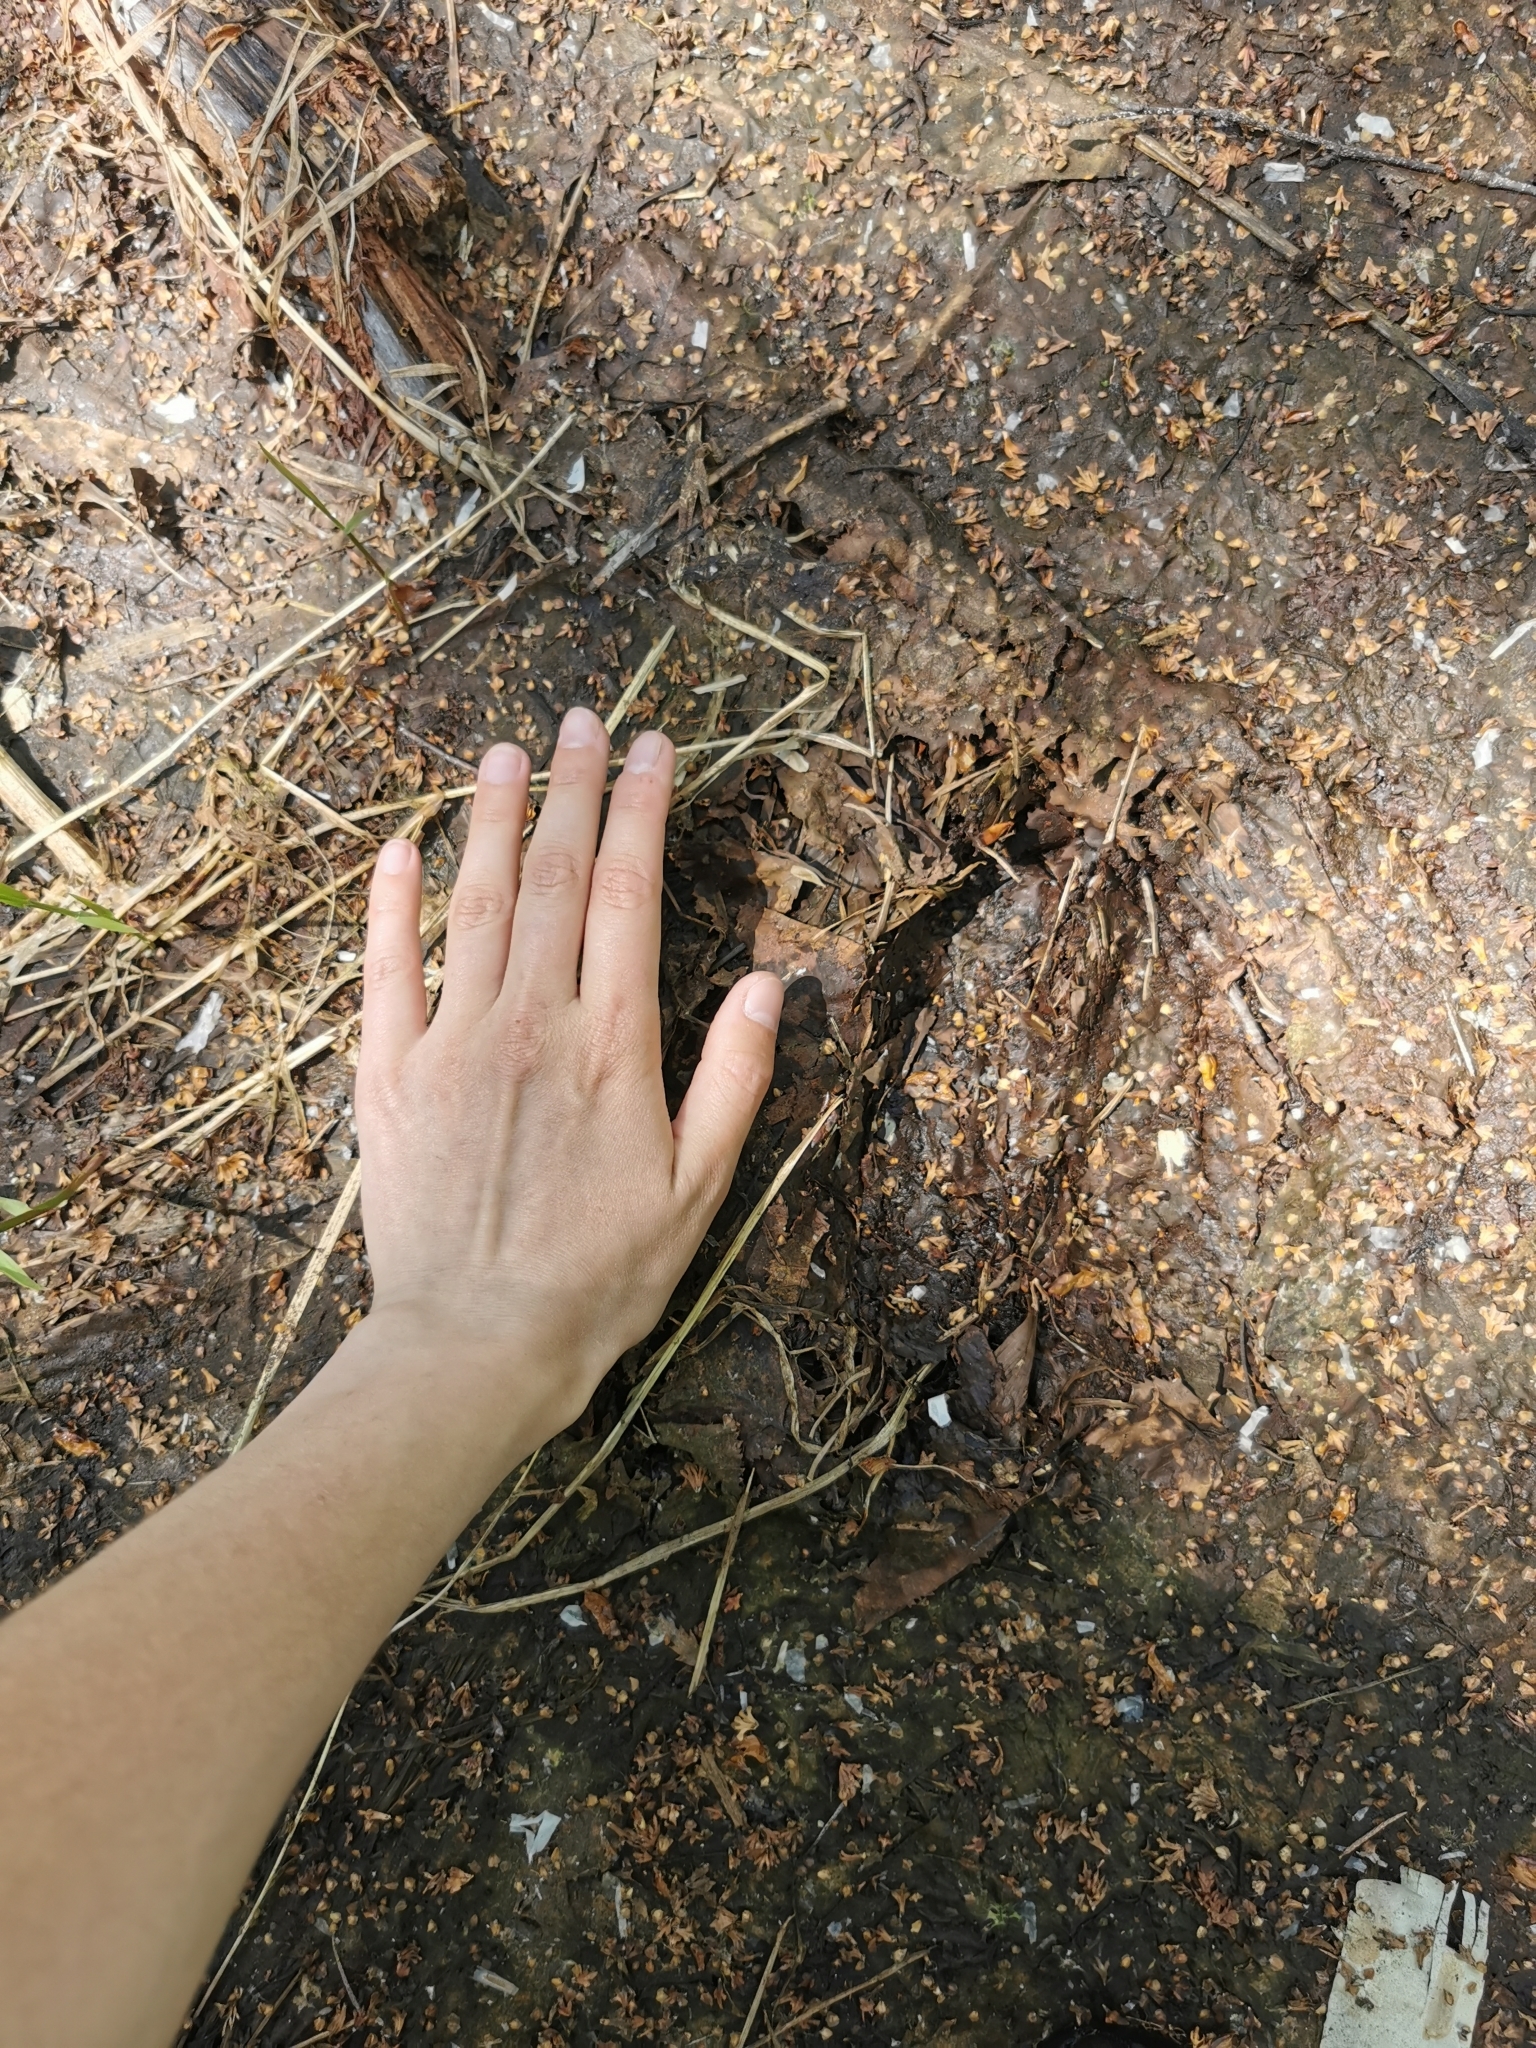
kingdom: Animalia
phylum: Chordata
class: Mammalia
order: Artiodactyla
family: Cervidae
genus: Alces
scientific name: Alces alces
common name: Moose
